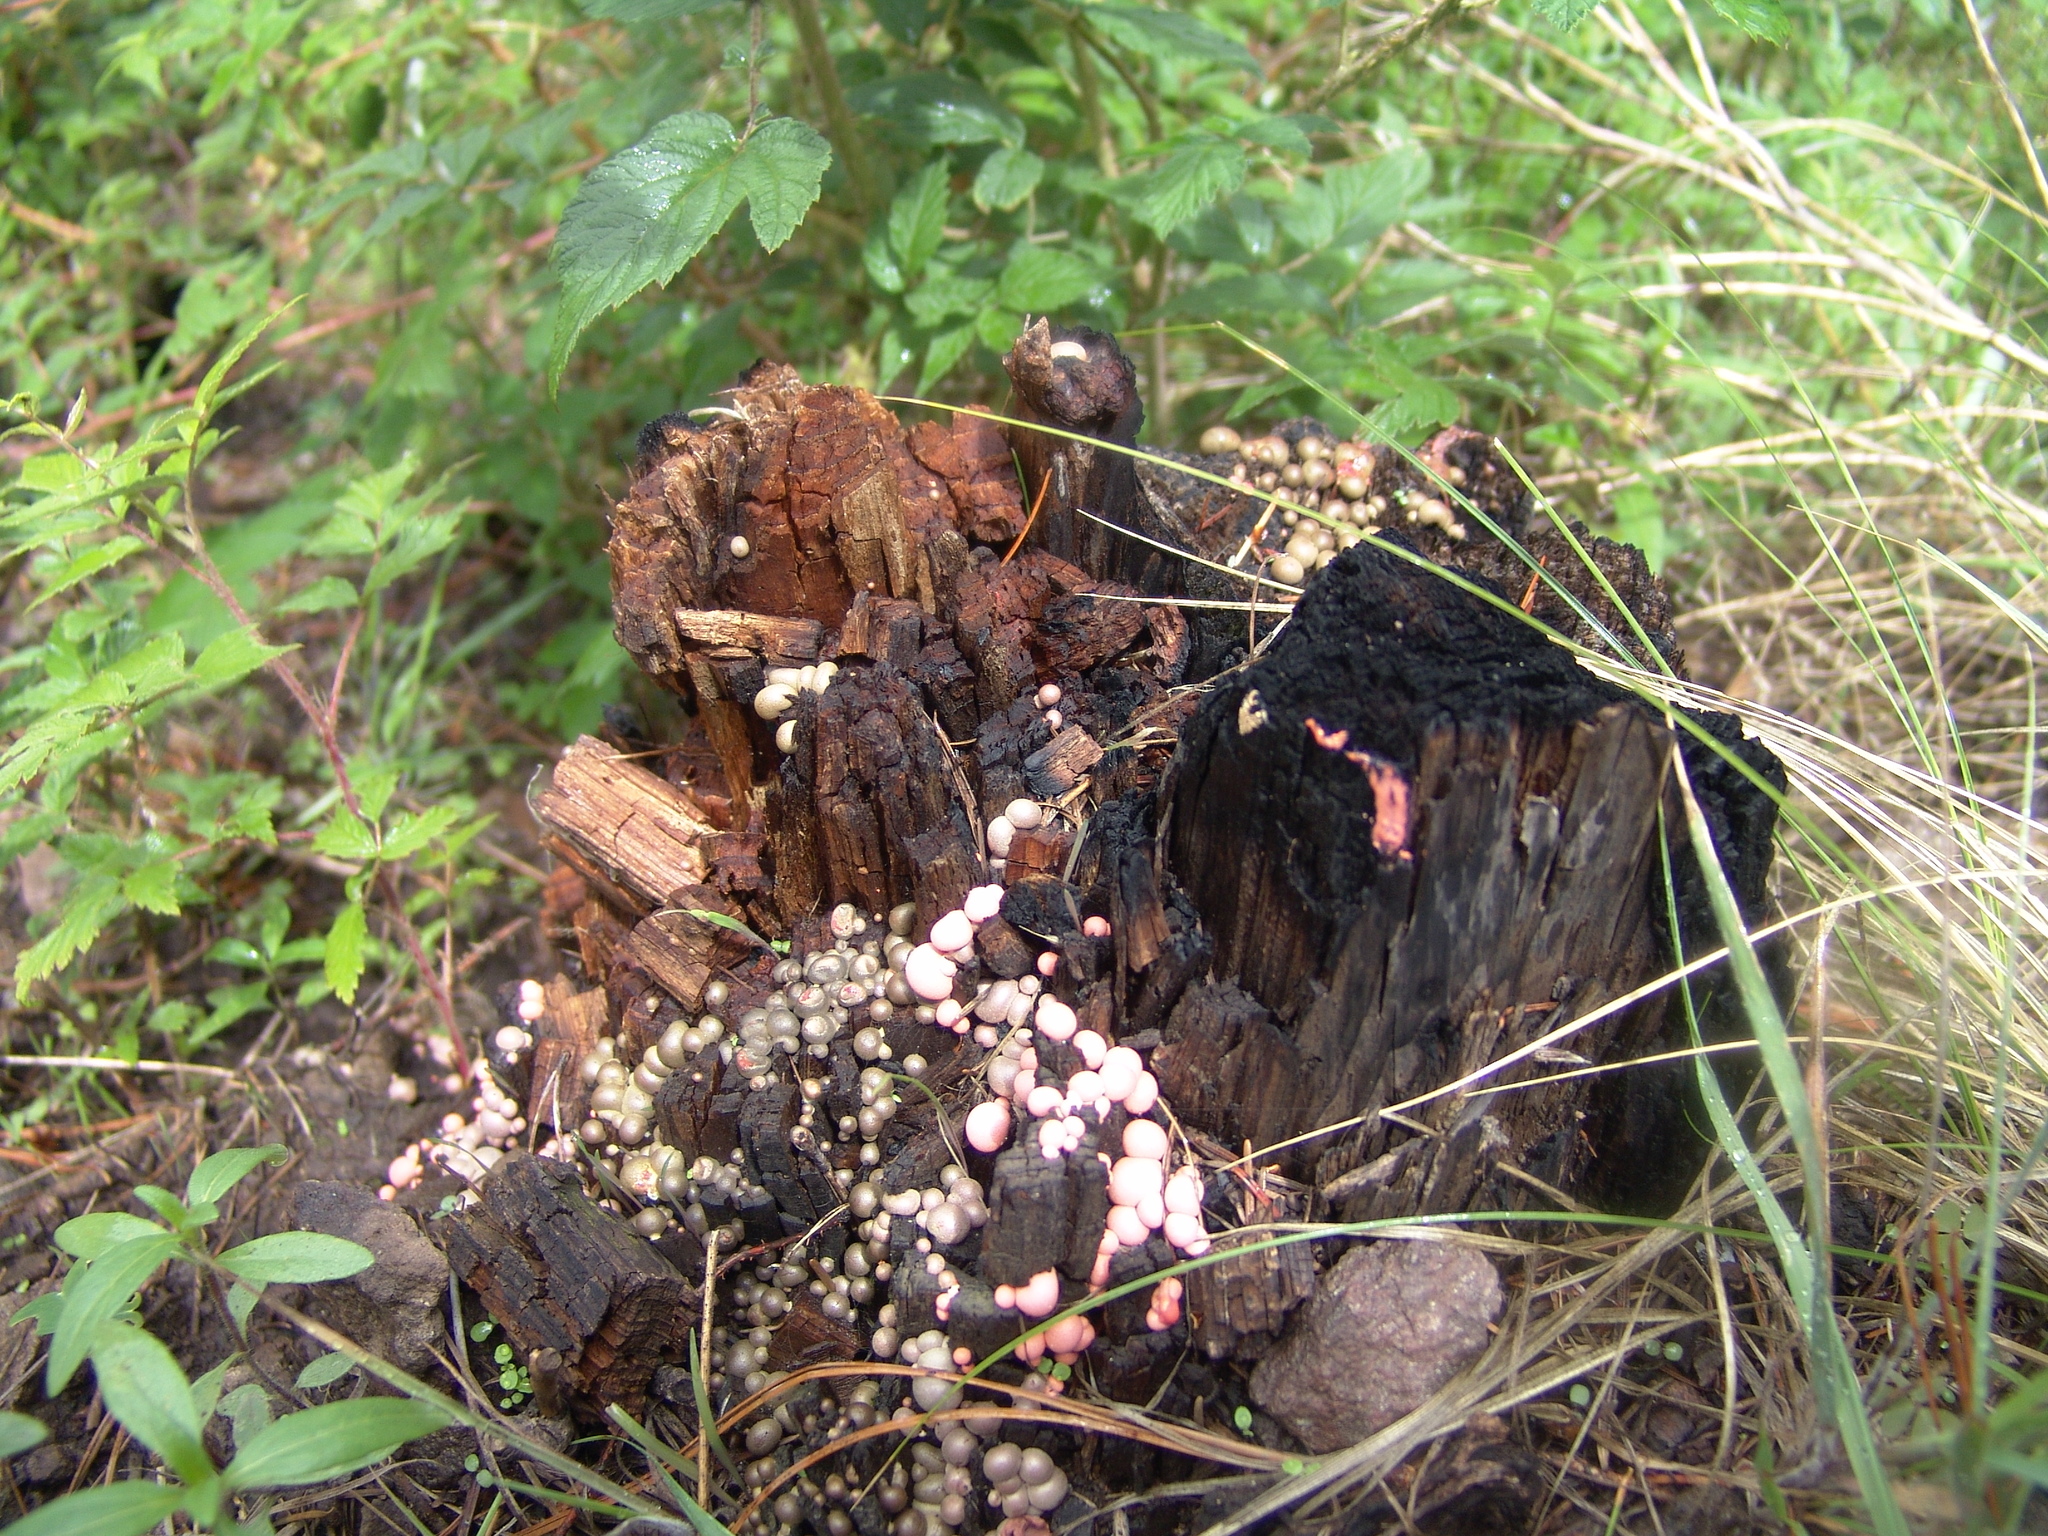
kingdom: Protozoa
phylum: Mycetozoa
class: Myxomycetes
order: Cribrariales
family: Tubiferaceae
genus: Lycogala
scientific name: Lycogala epidendrum
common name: Wolf's milk
